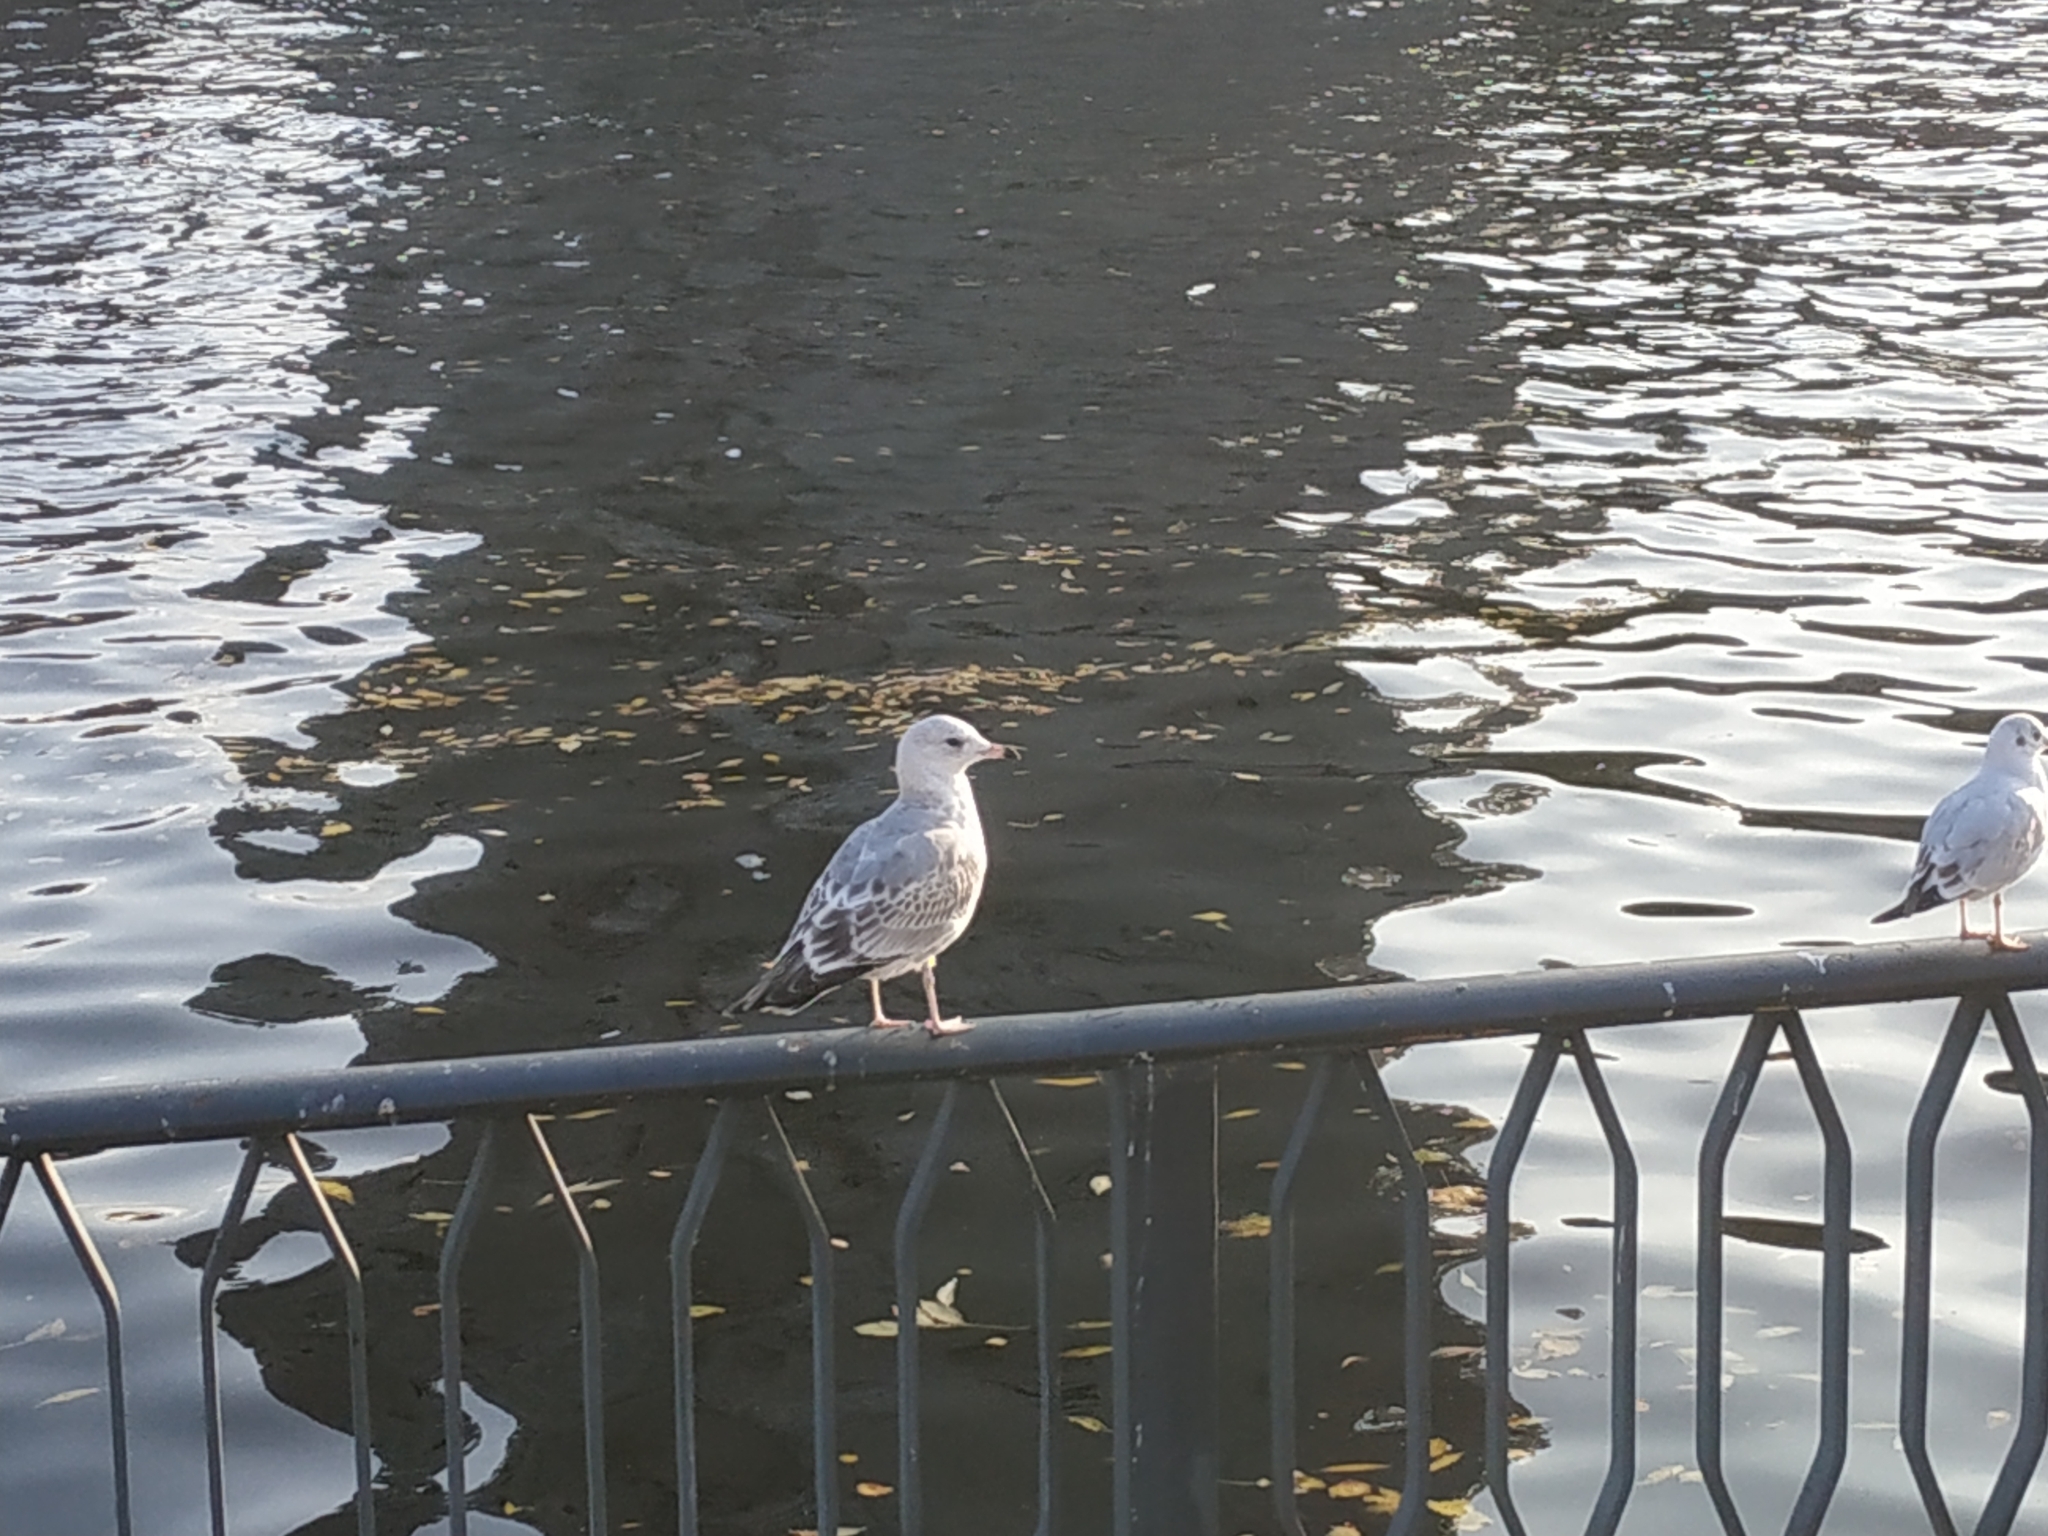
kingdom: Animalia
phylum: Chordata
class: Aves
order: Charadriiformes
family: Laridae
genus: Larus
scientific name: Larus canus
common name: Mew gull
